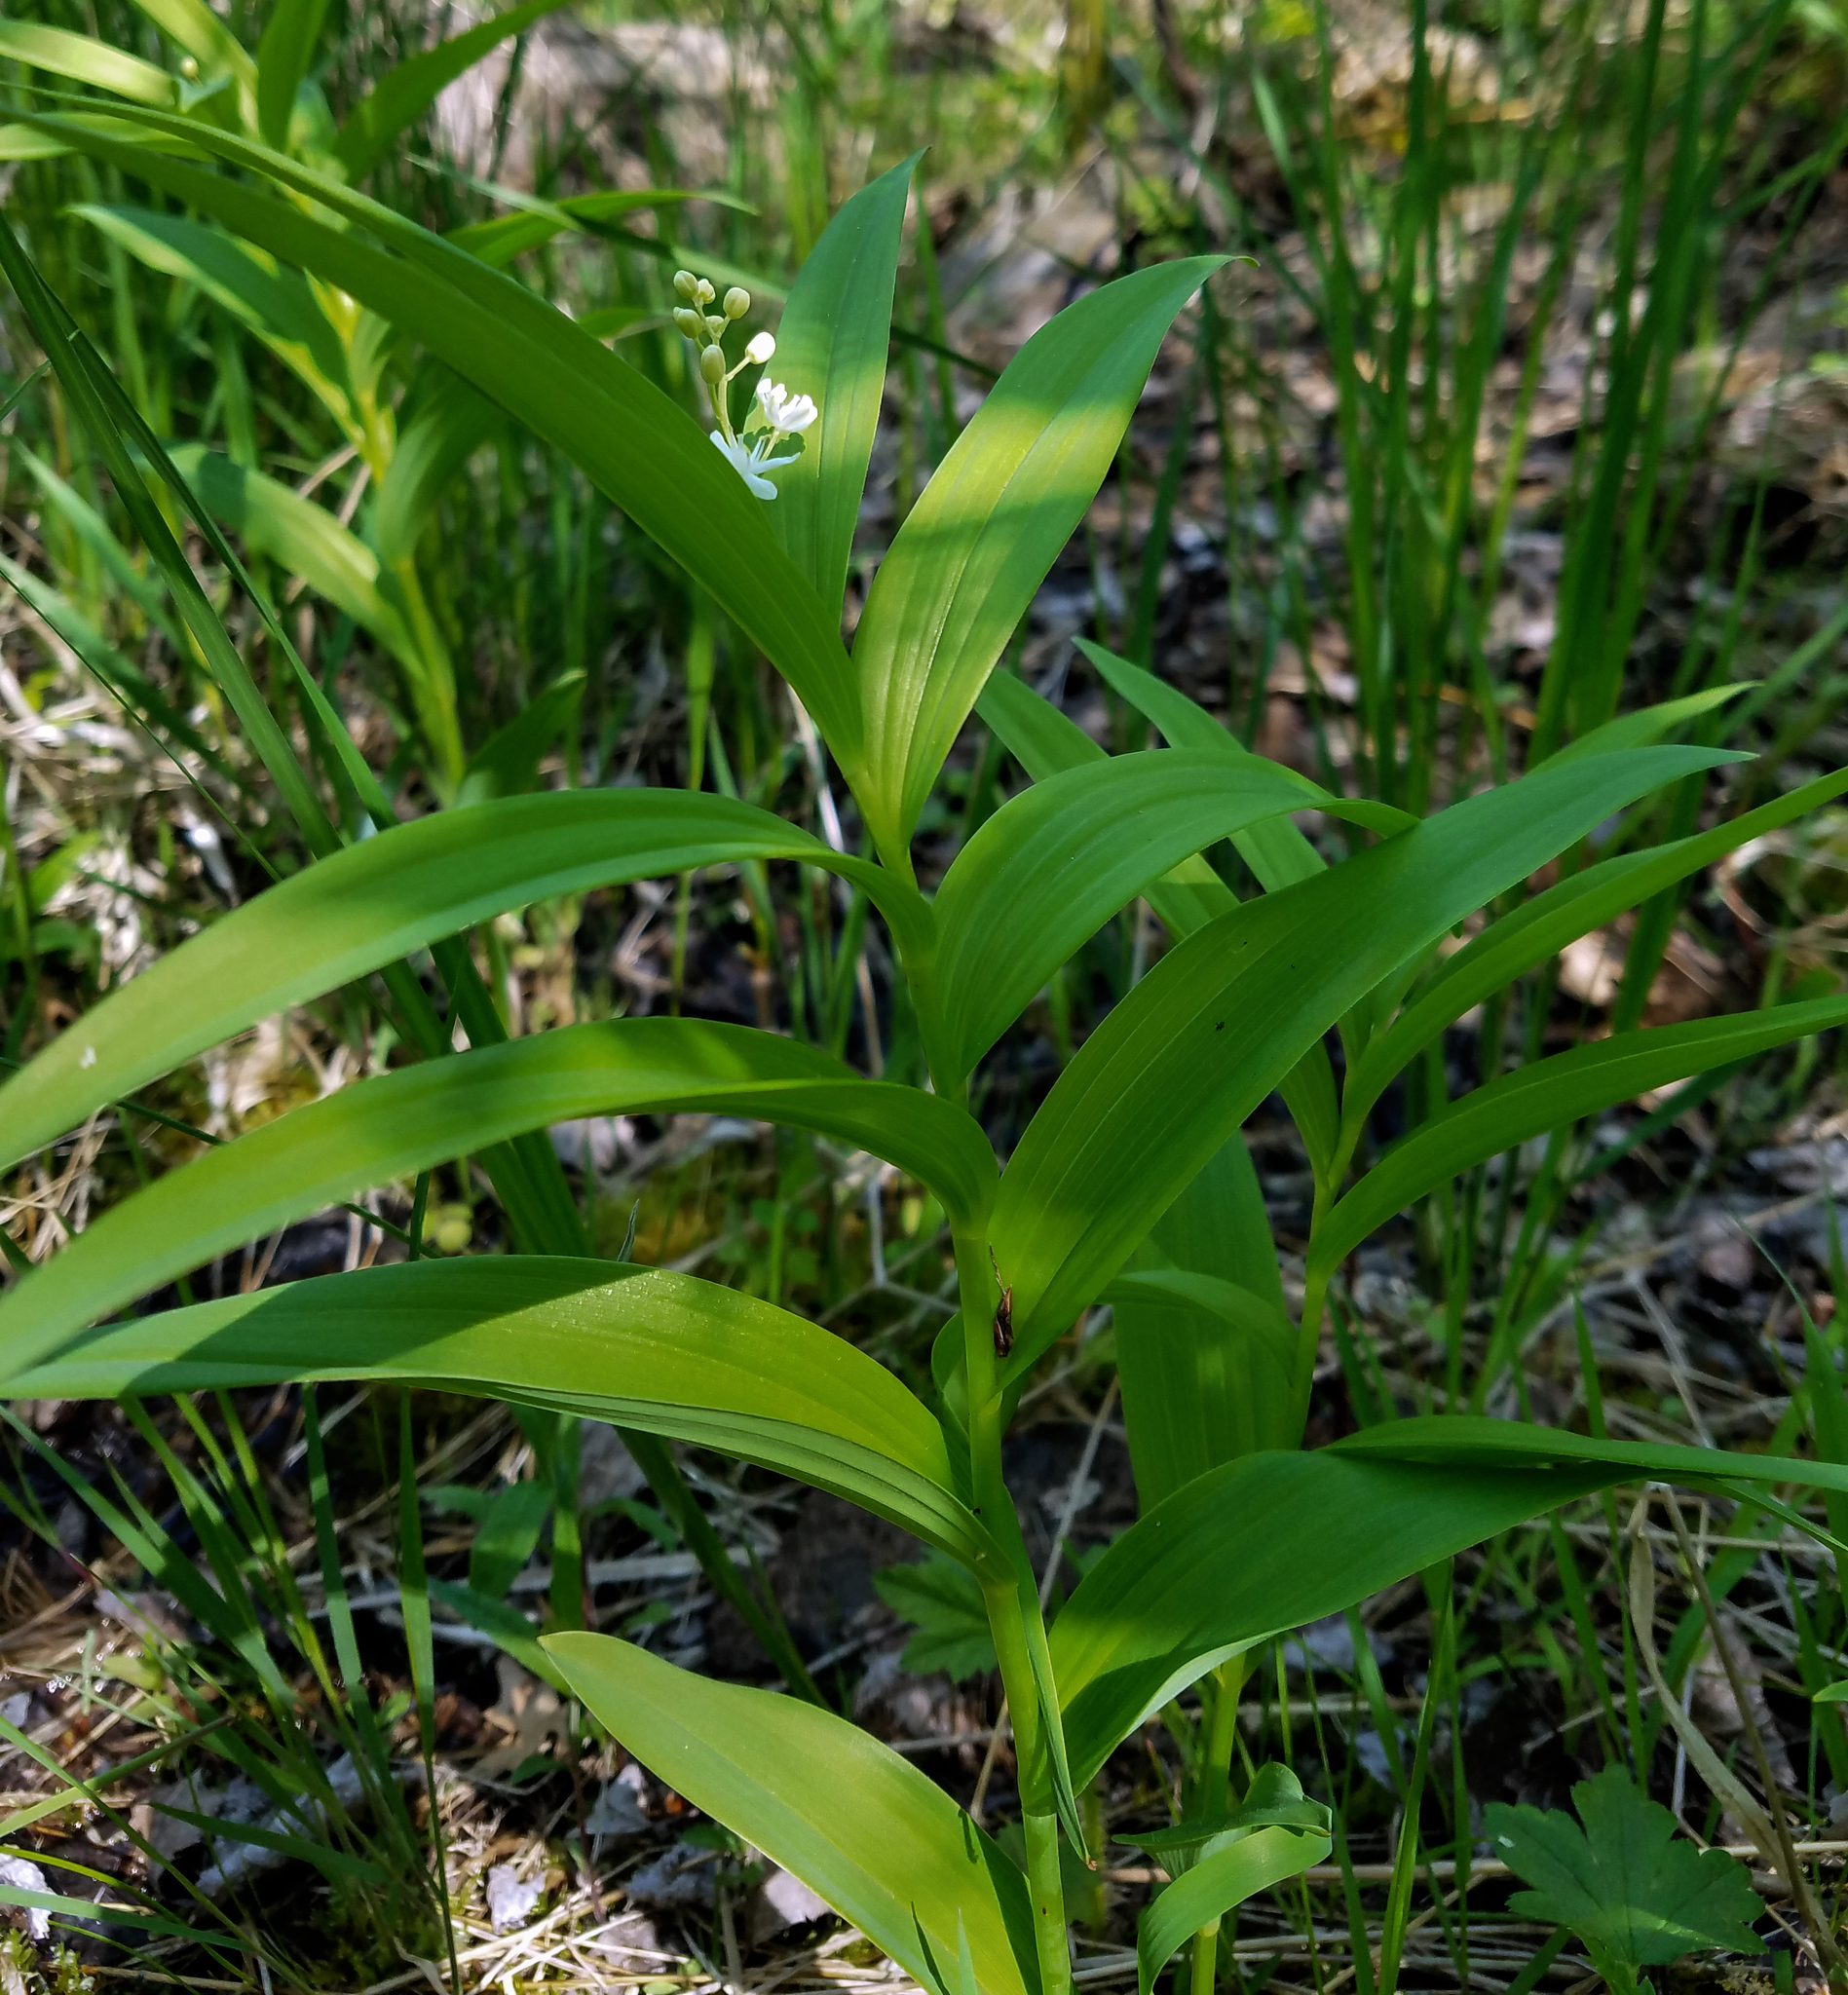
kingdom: Plantae
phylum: Tracheophyta
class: Liliopsida
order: Asparagales
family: Asparagaceae
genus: Maianthemum
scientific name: Maianthemum stellatum
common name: Little false solomon's seal
